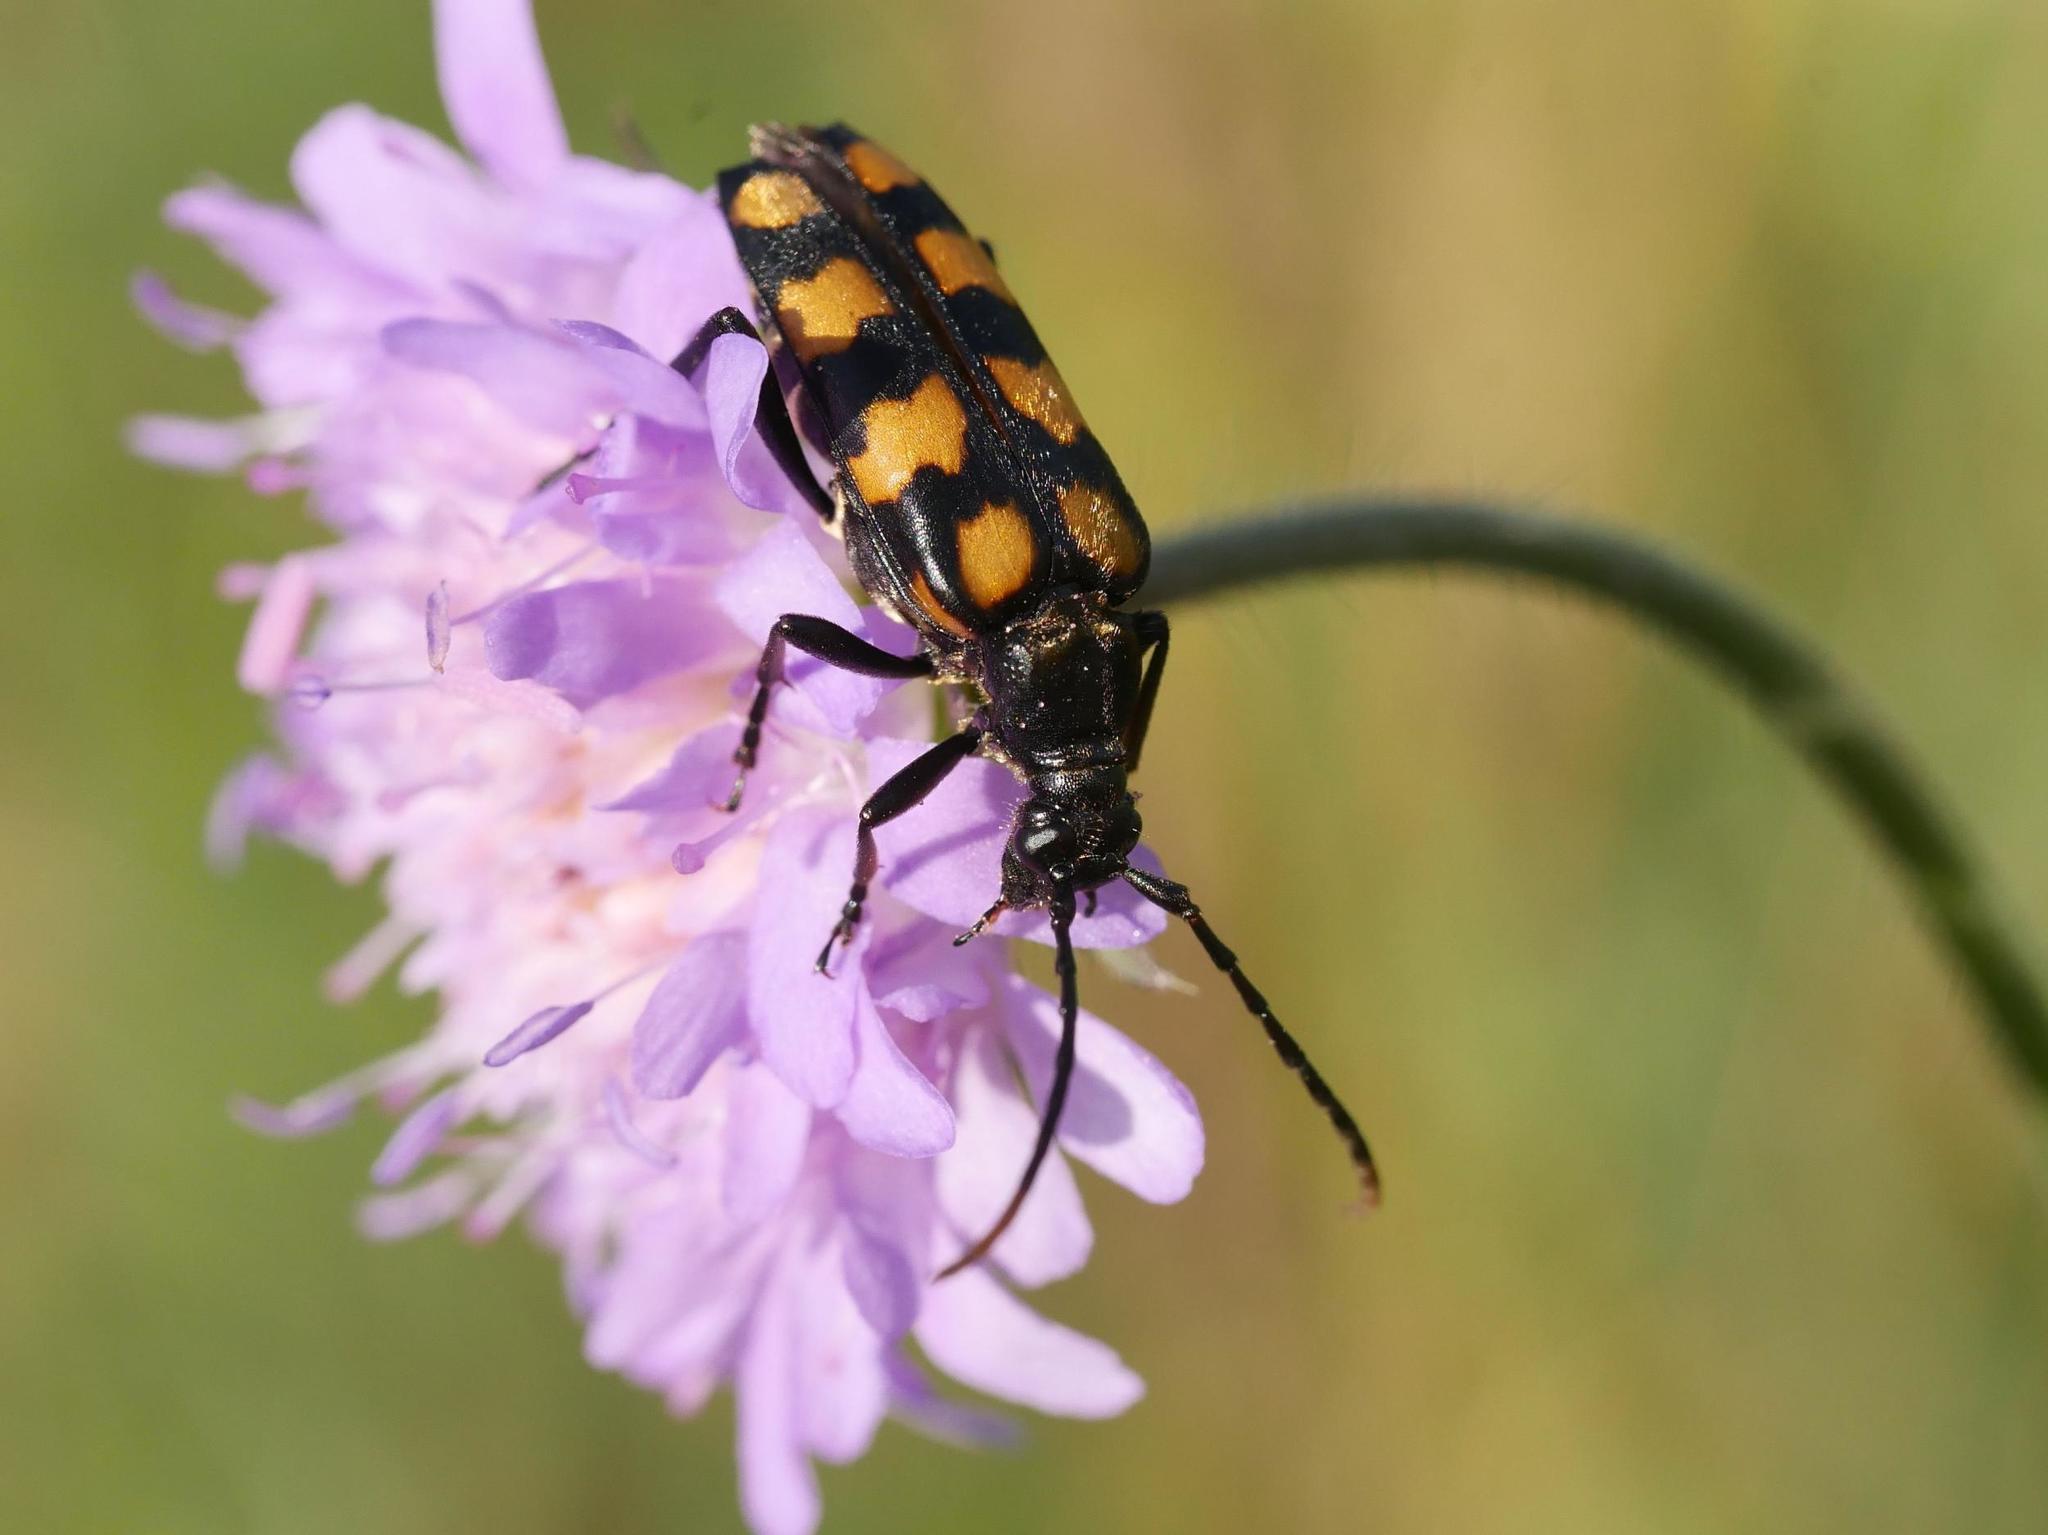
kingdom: Animalia
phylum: Arthropoda
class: Insecta
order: Coleoptera
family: Cerambycidae
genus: Leptura
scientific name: Leptura quadrifasciata
